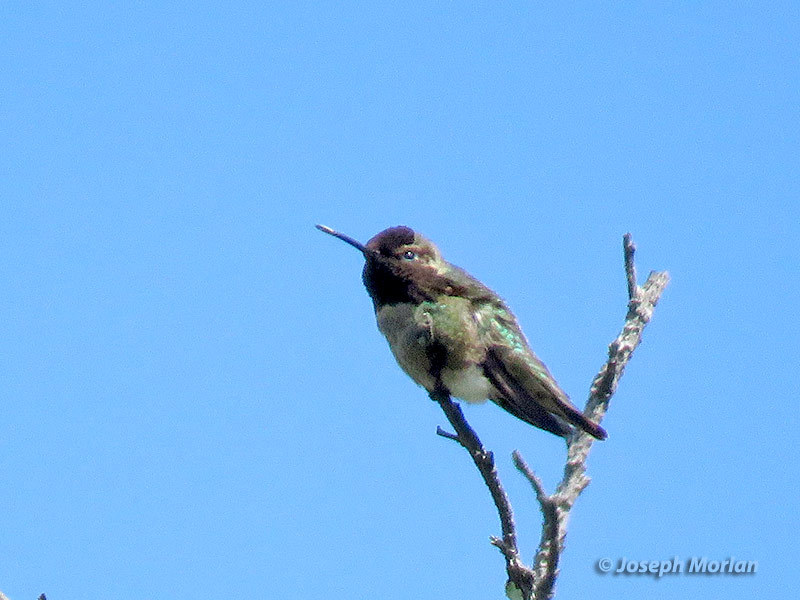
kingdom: Animalia
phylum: Chordata
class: Aves
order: Apodiformes
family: Trochilidae
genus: Calypte
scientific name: Calypte anna
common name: Anna's hummingbird
